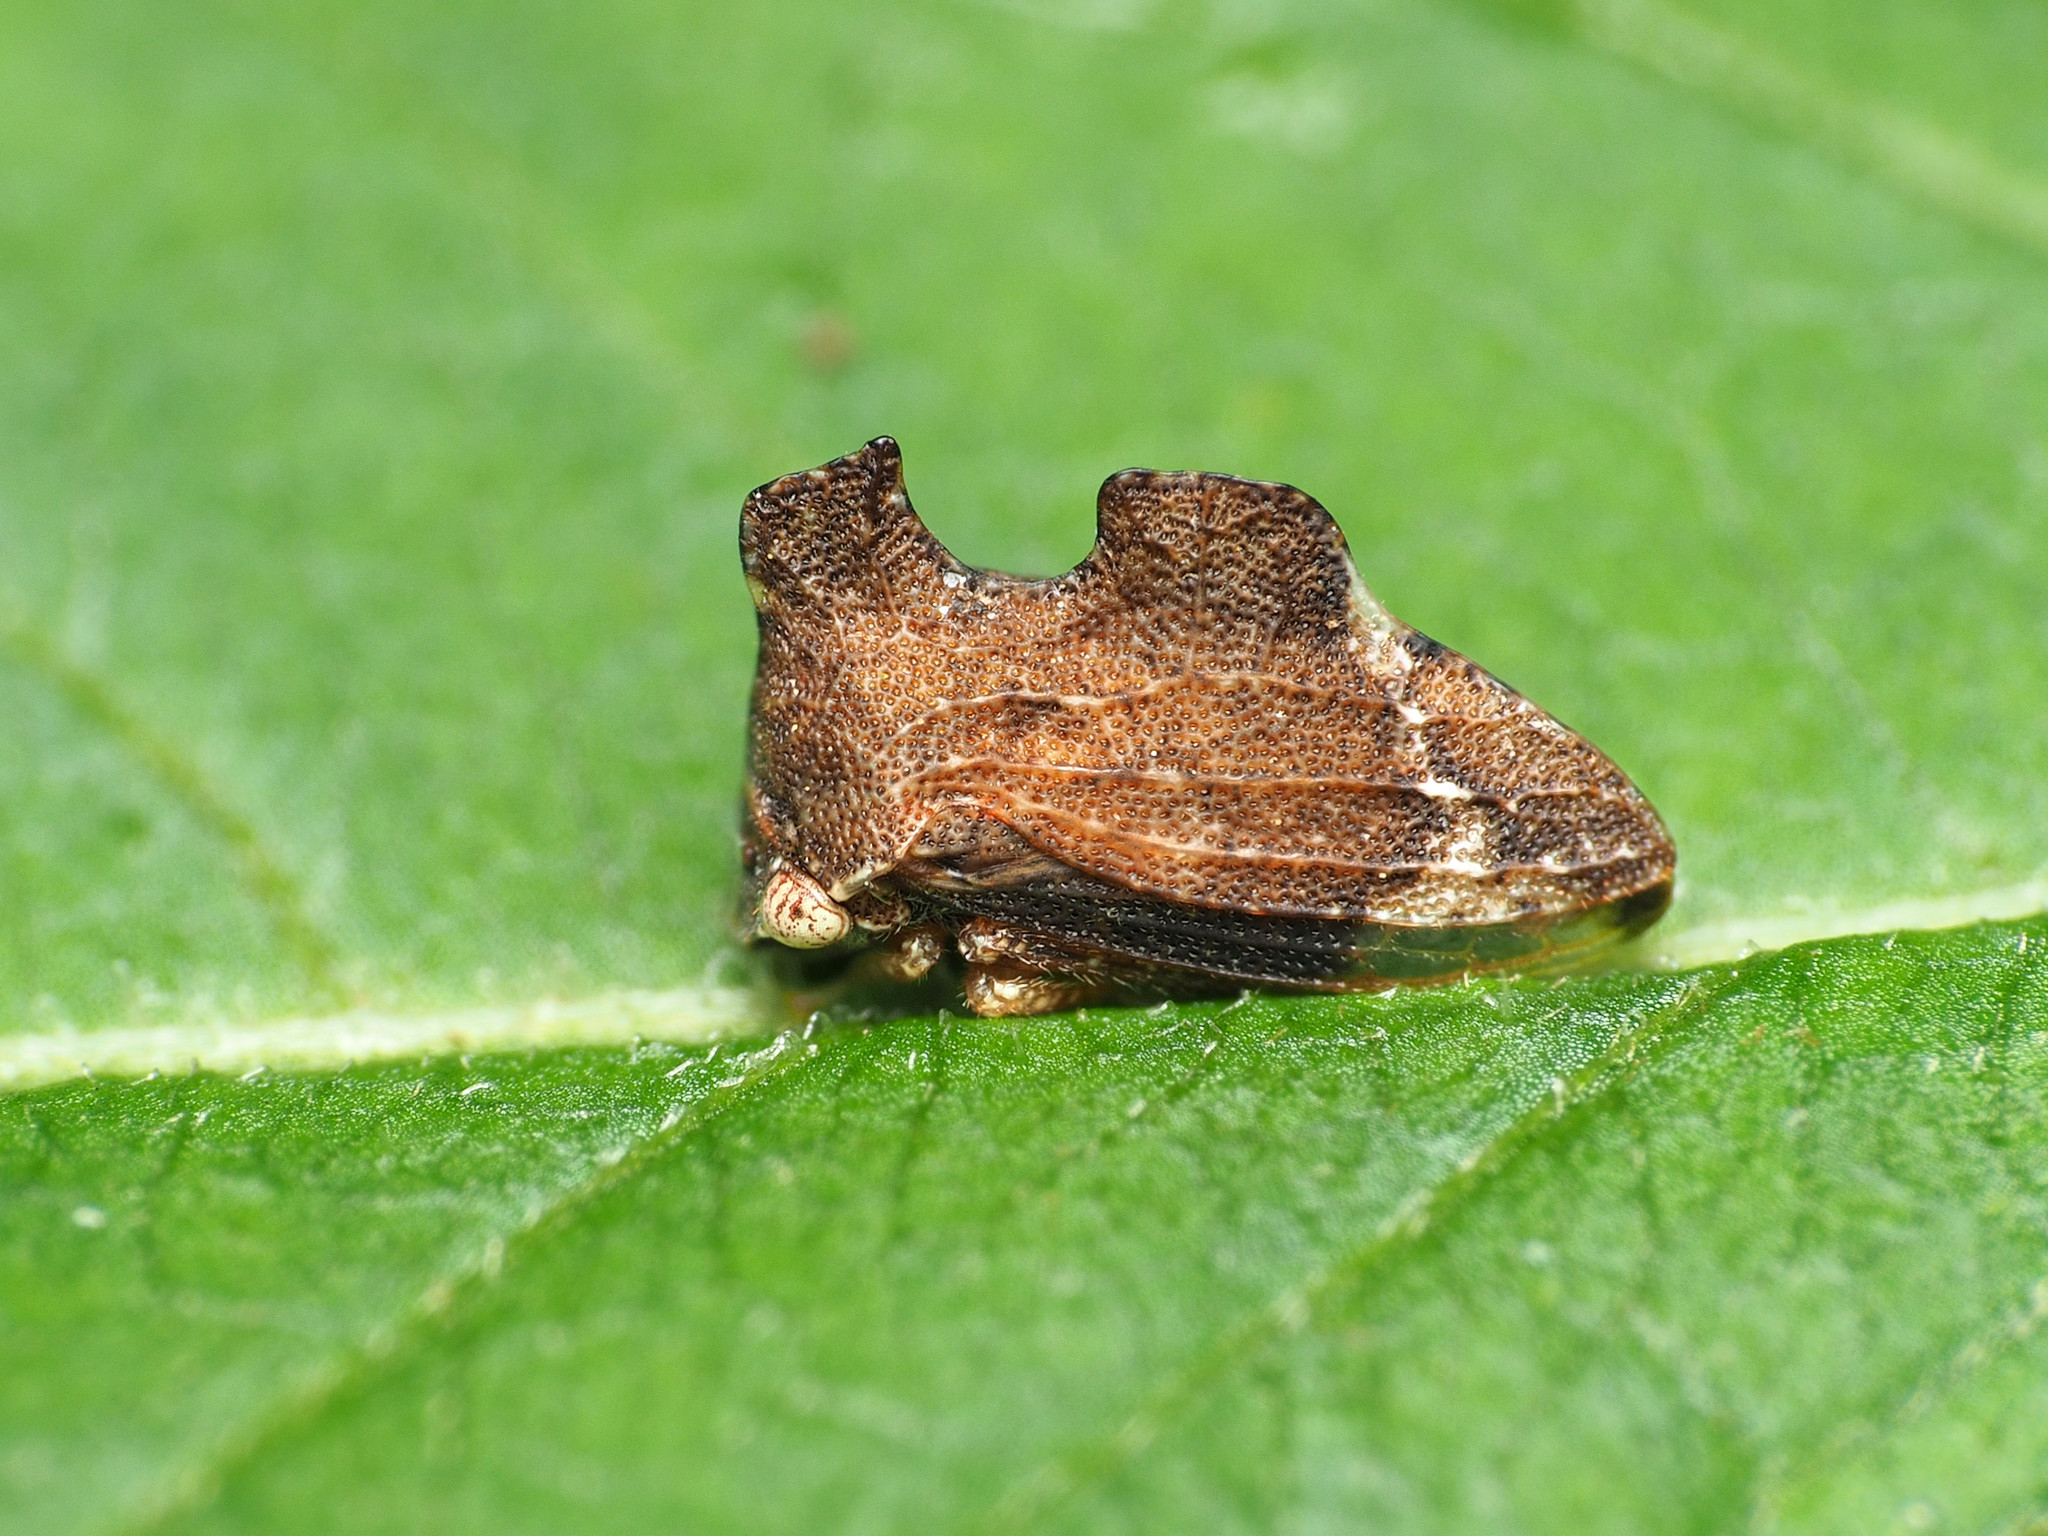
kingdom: Animalia
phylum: Arthropoda
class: Insecta
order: Hemiptera
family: Membracidae
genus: Entylia
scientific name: Entylia carinata
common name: Keeled treehopper
